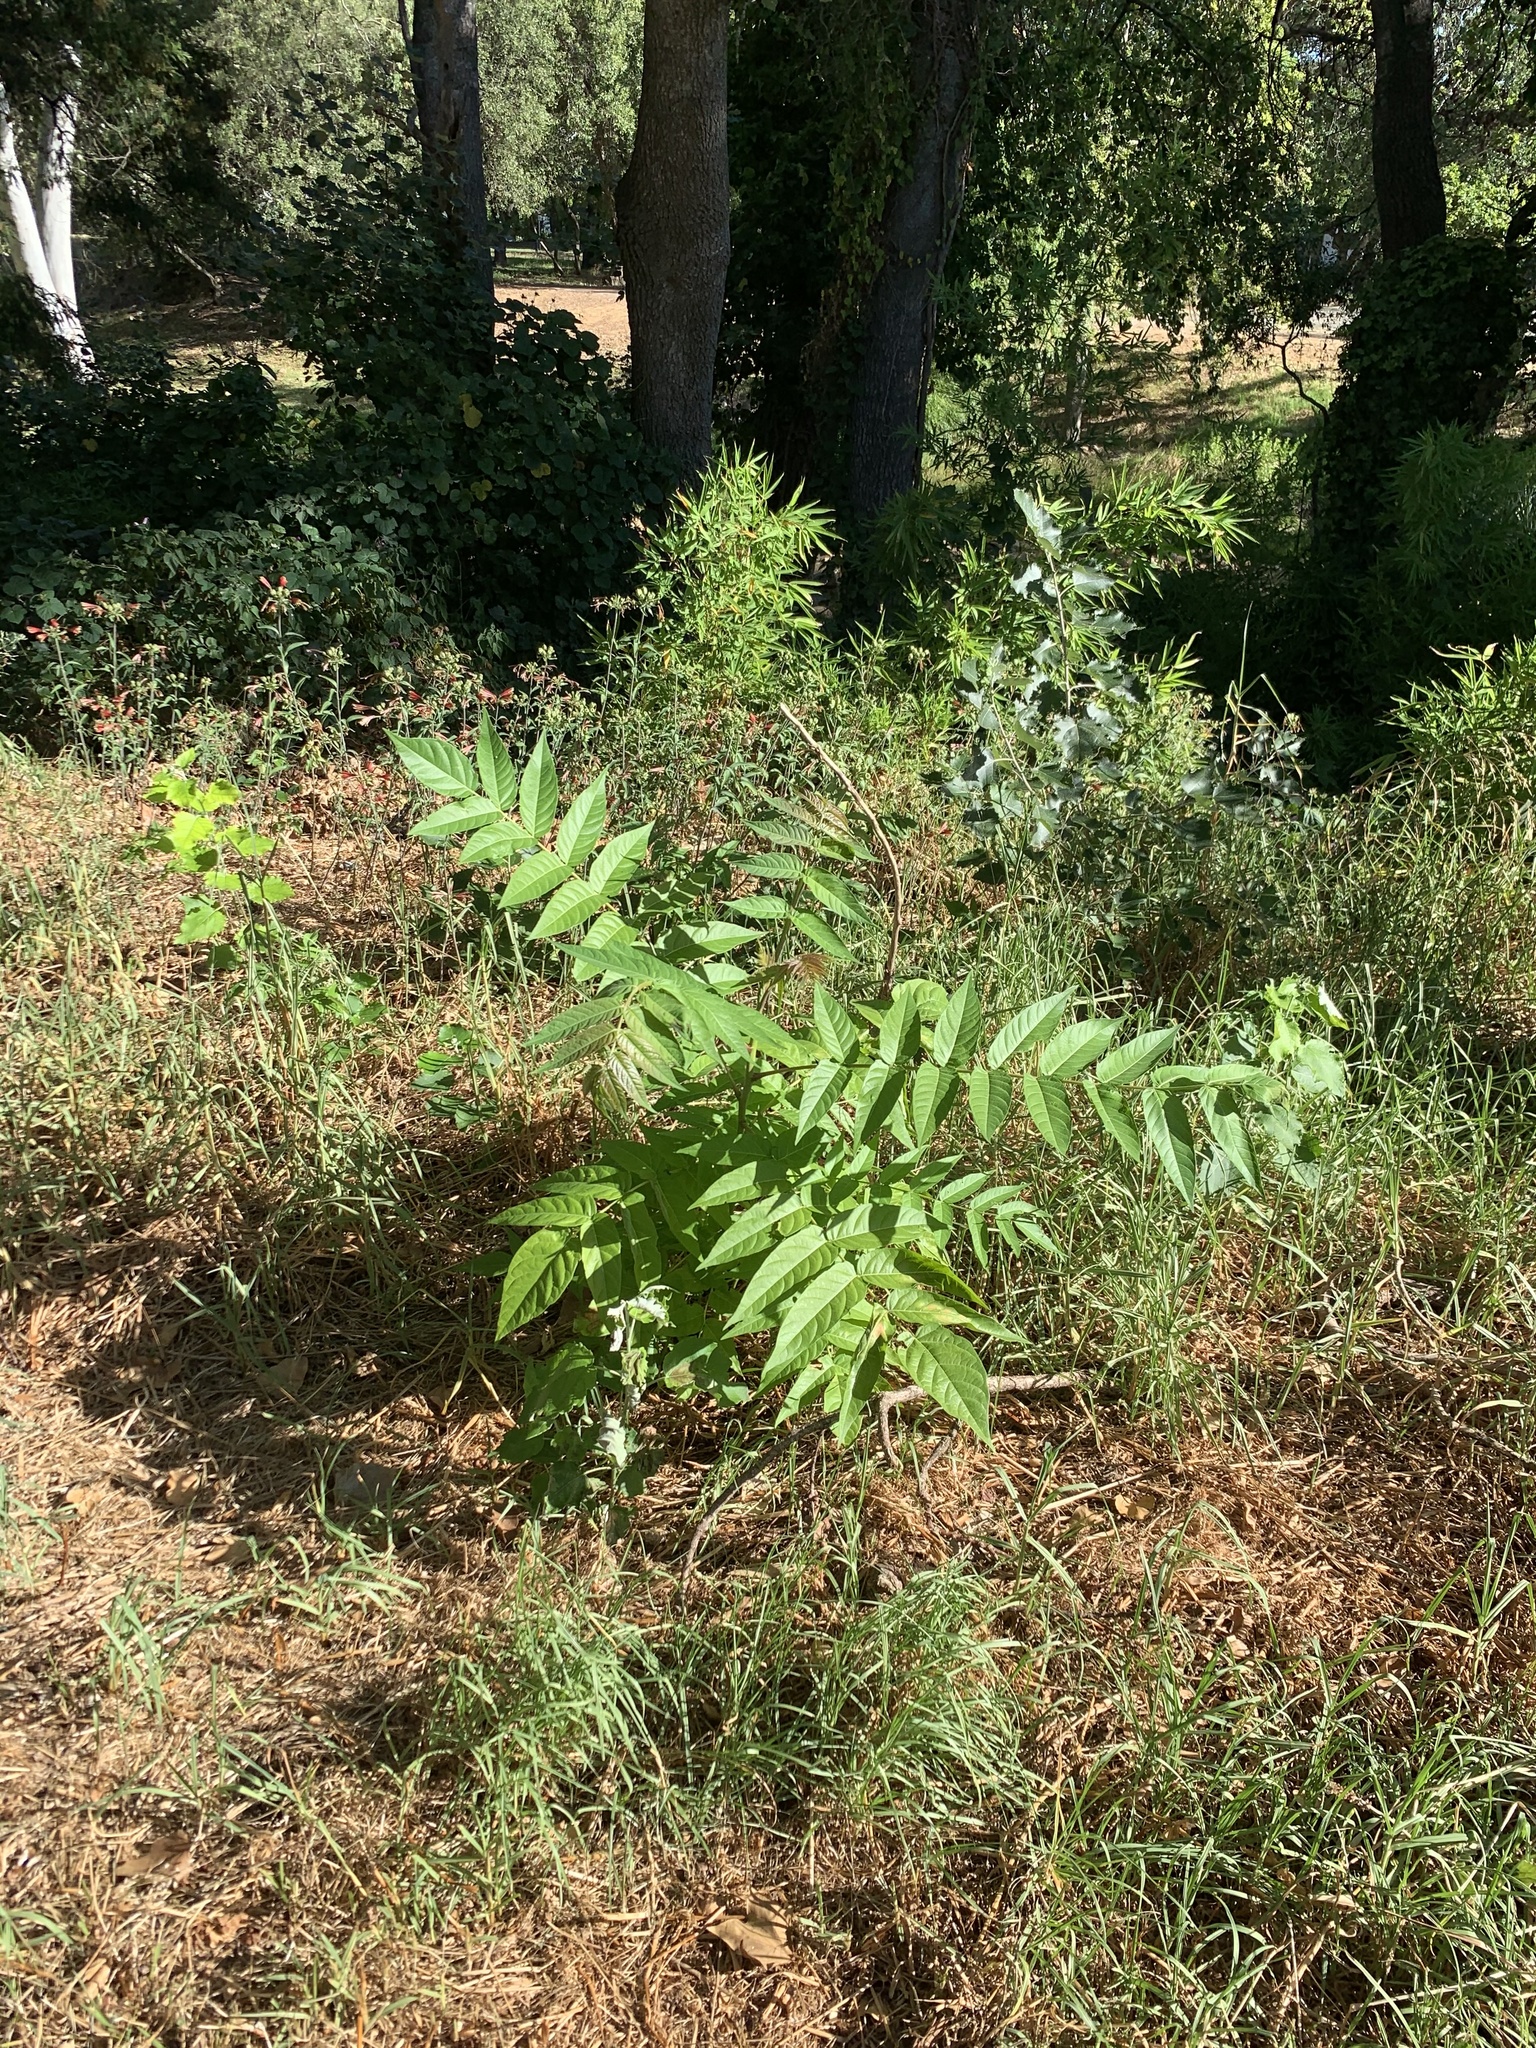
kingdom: Plantae
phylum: Tracheophyta
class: Magnoliopsida
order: Sapindales
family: Simaroubaceae
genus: Ailanthus
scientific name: Ailanthus altissima
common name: Tree-of-heaven
